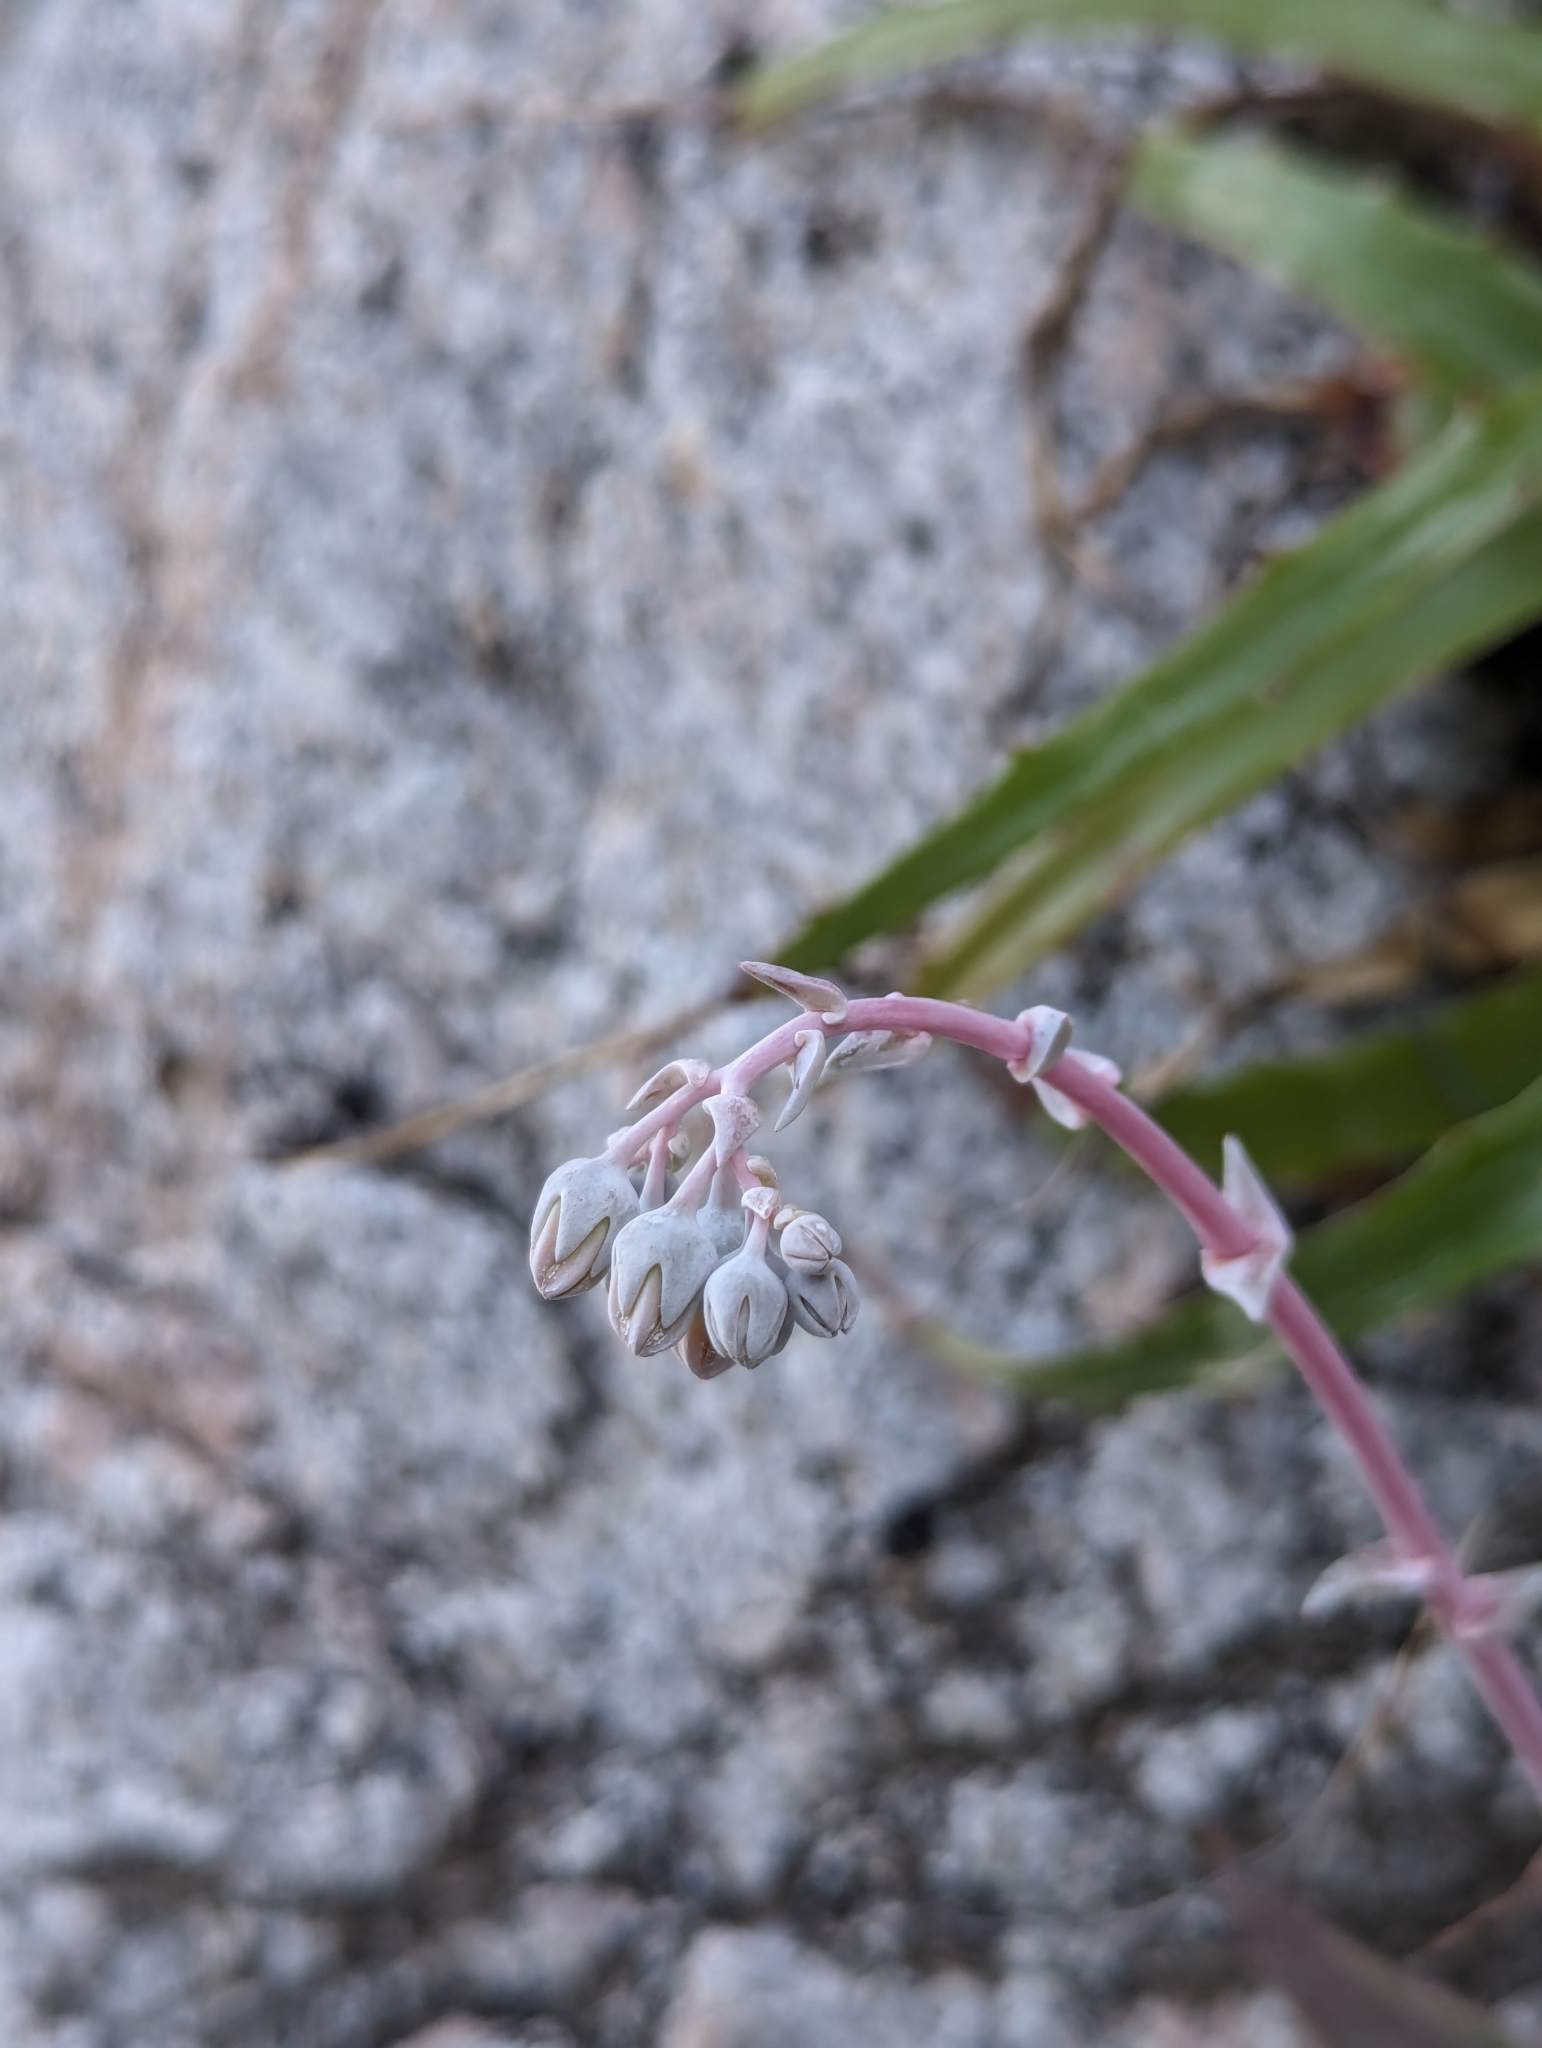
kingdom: Plantae
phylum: Tracheophyta
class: Magnoliopsida
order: Saxifragales
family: Crassulaceae
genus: Dudleya
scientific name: Dudleya nubigena
